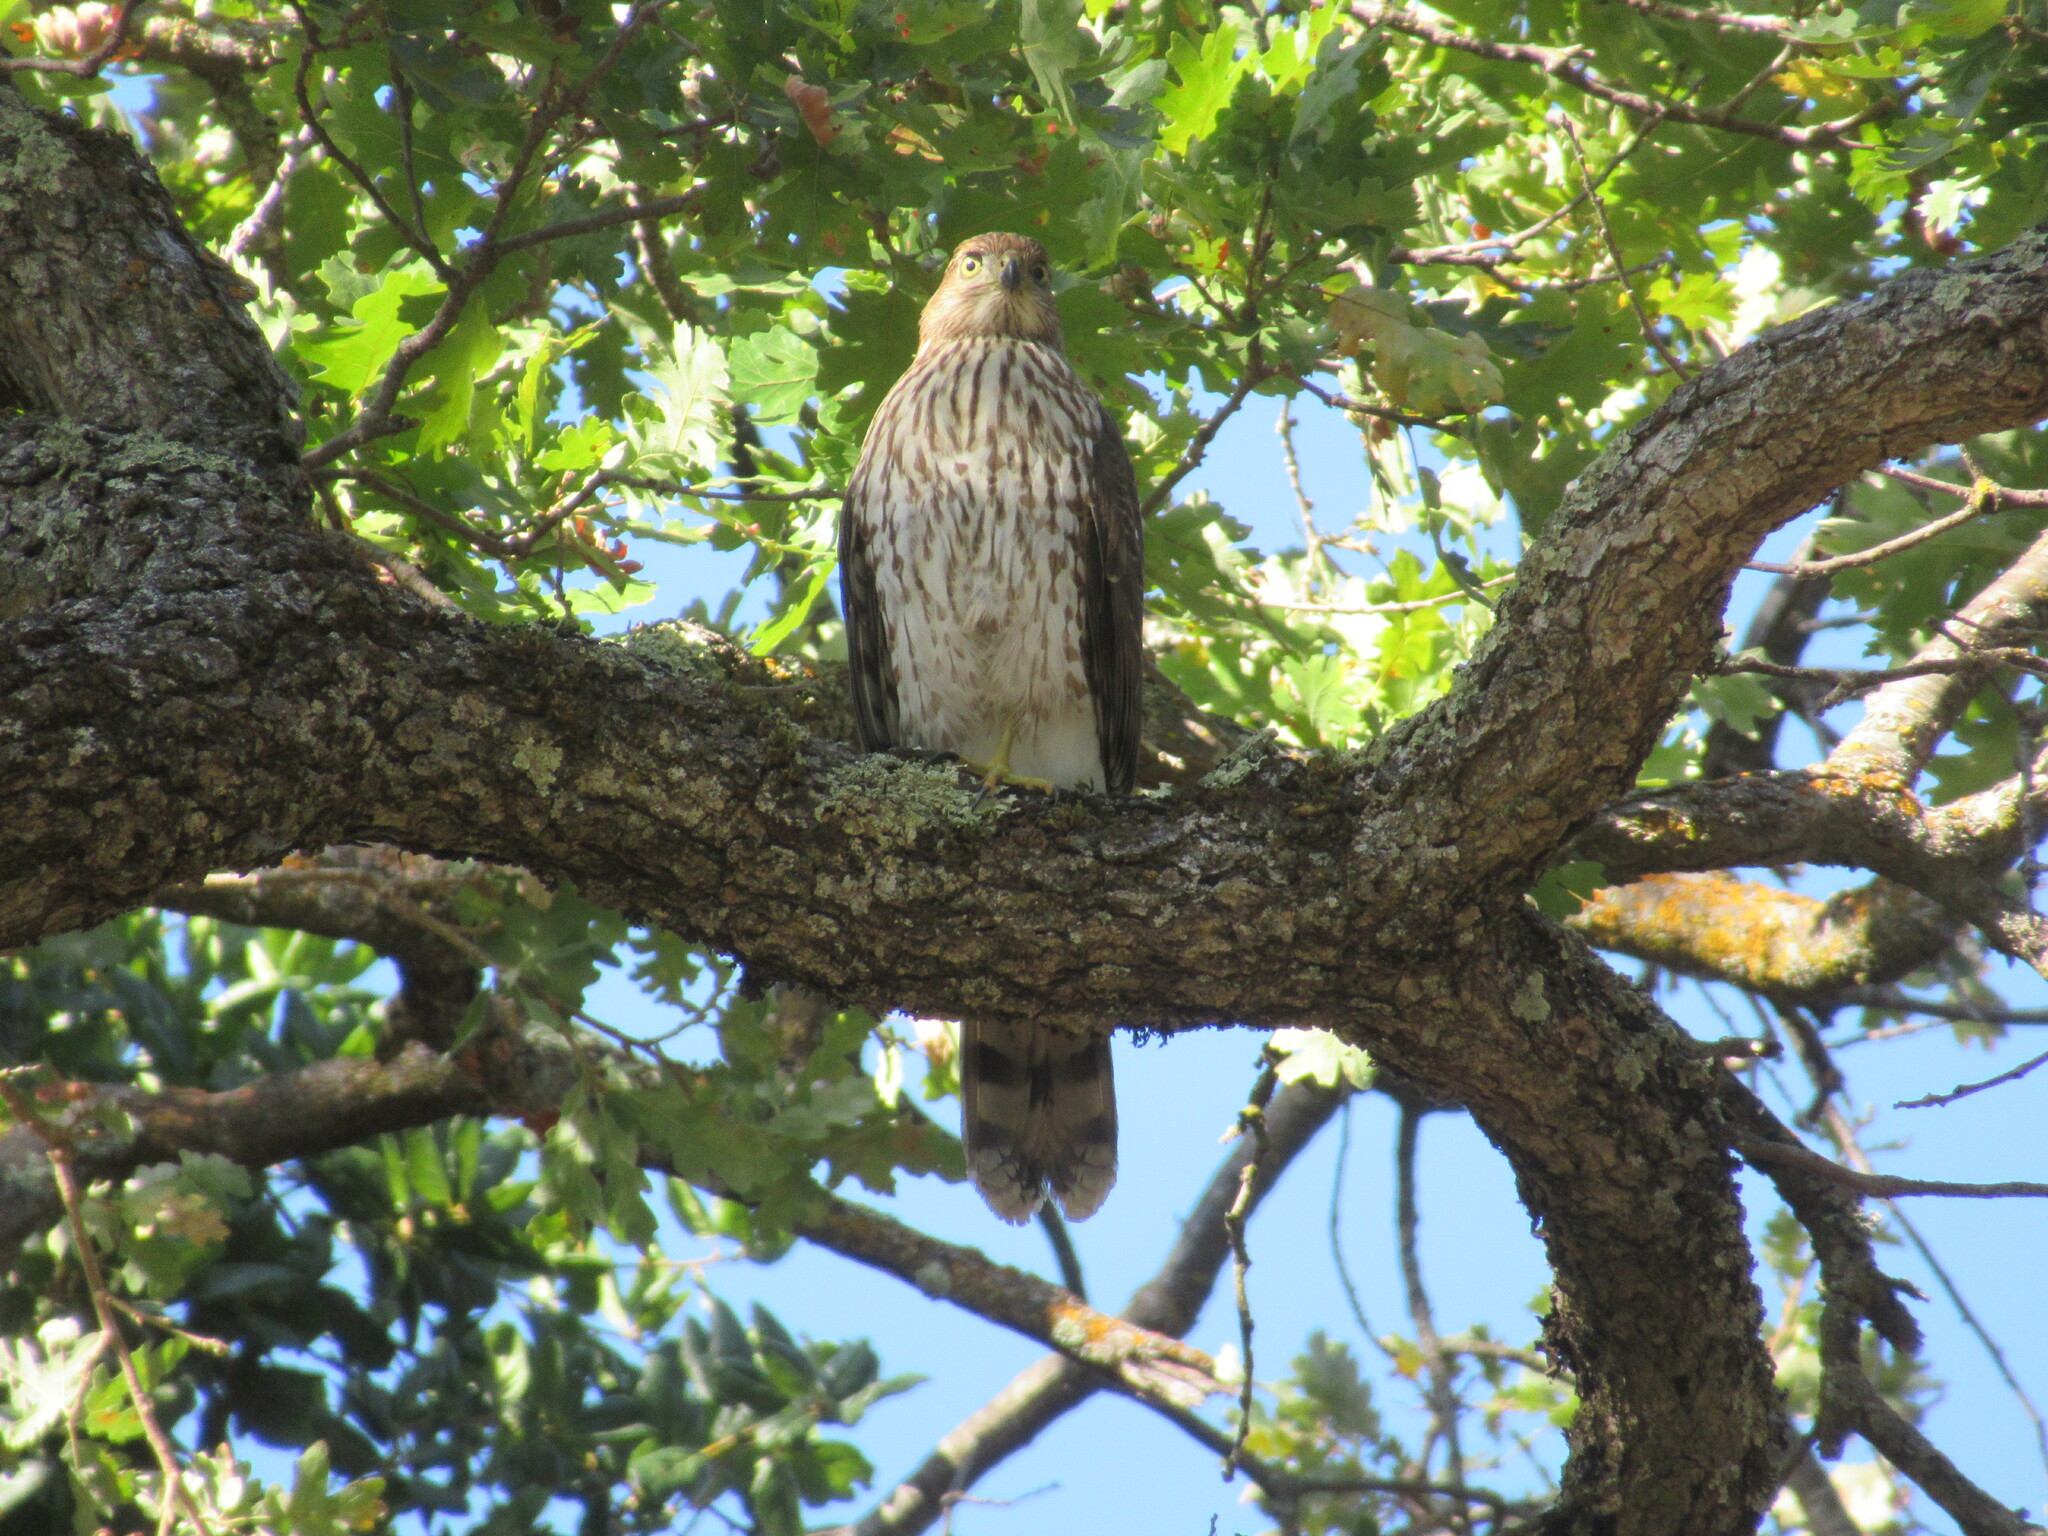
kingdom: Animalia
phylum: Chordata
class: Aves
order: Accipitriformes
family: Accipitridae
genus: Accipiter
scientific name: Accipiter cooperii
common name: Cooper's hawk
